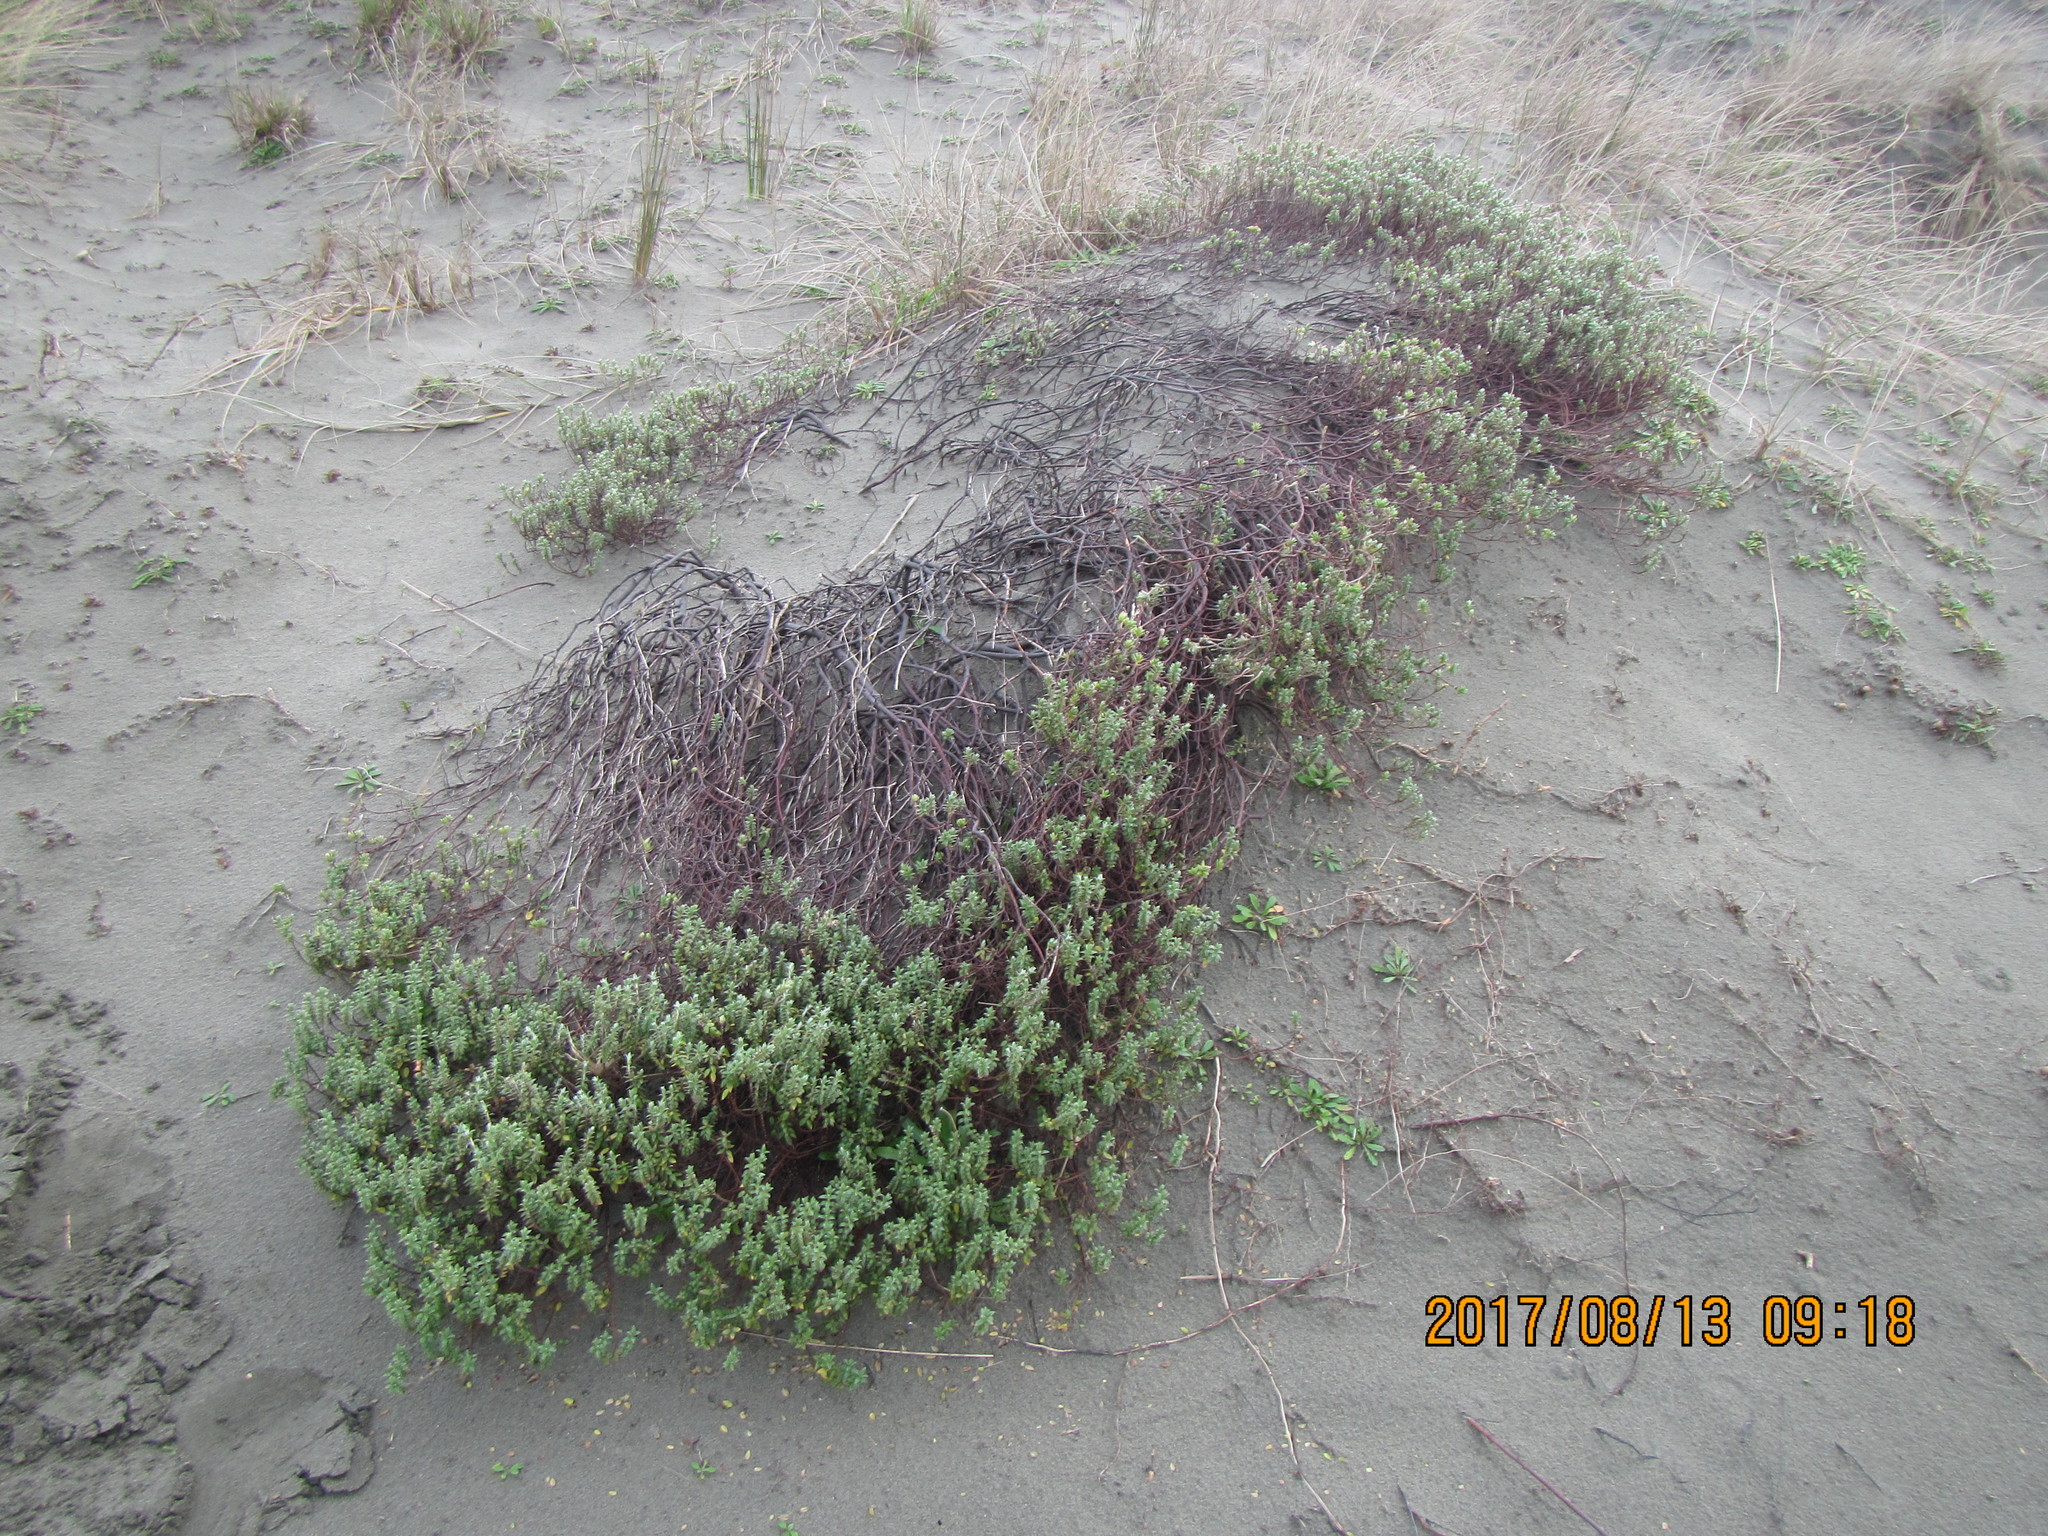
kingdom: Plantae
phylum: Tracheophyta
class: Magnoliopsida
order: Malvales
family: Thymelaeaceae
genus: Pimelea
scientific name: Pimelea villosa
